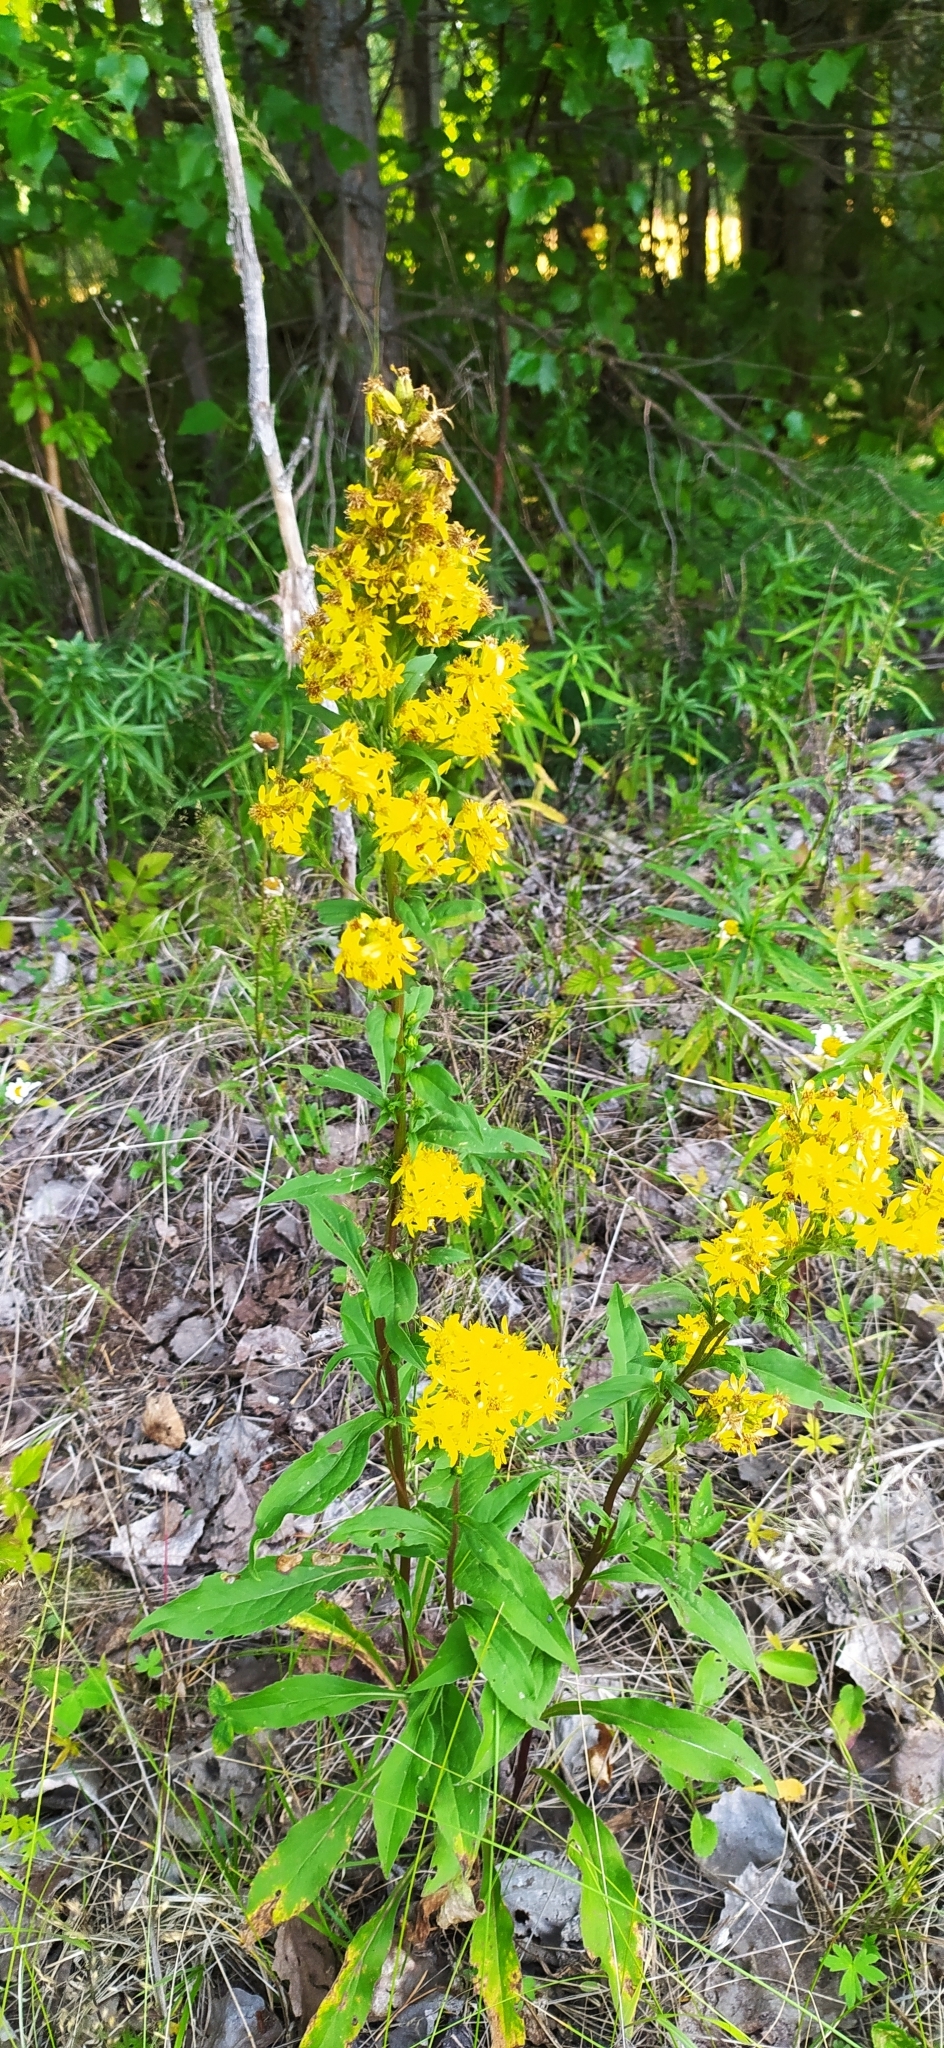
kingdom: Plantae
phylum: Tracheophyta
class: Magnoliopsida
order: Asterales
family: Asteraceae
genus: Solidago
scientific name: Solidago virgaurea
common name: Goldenrod
